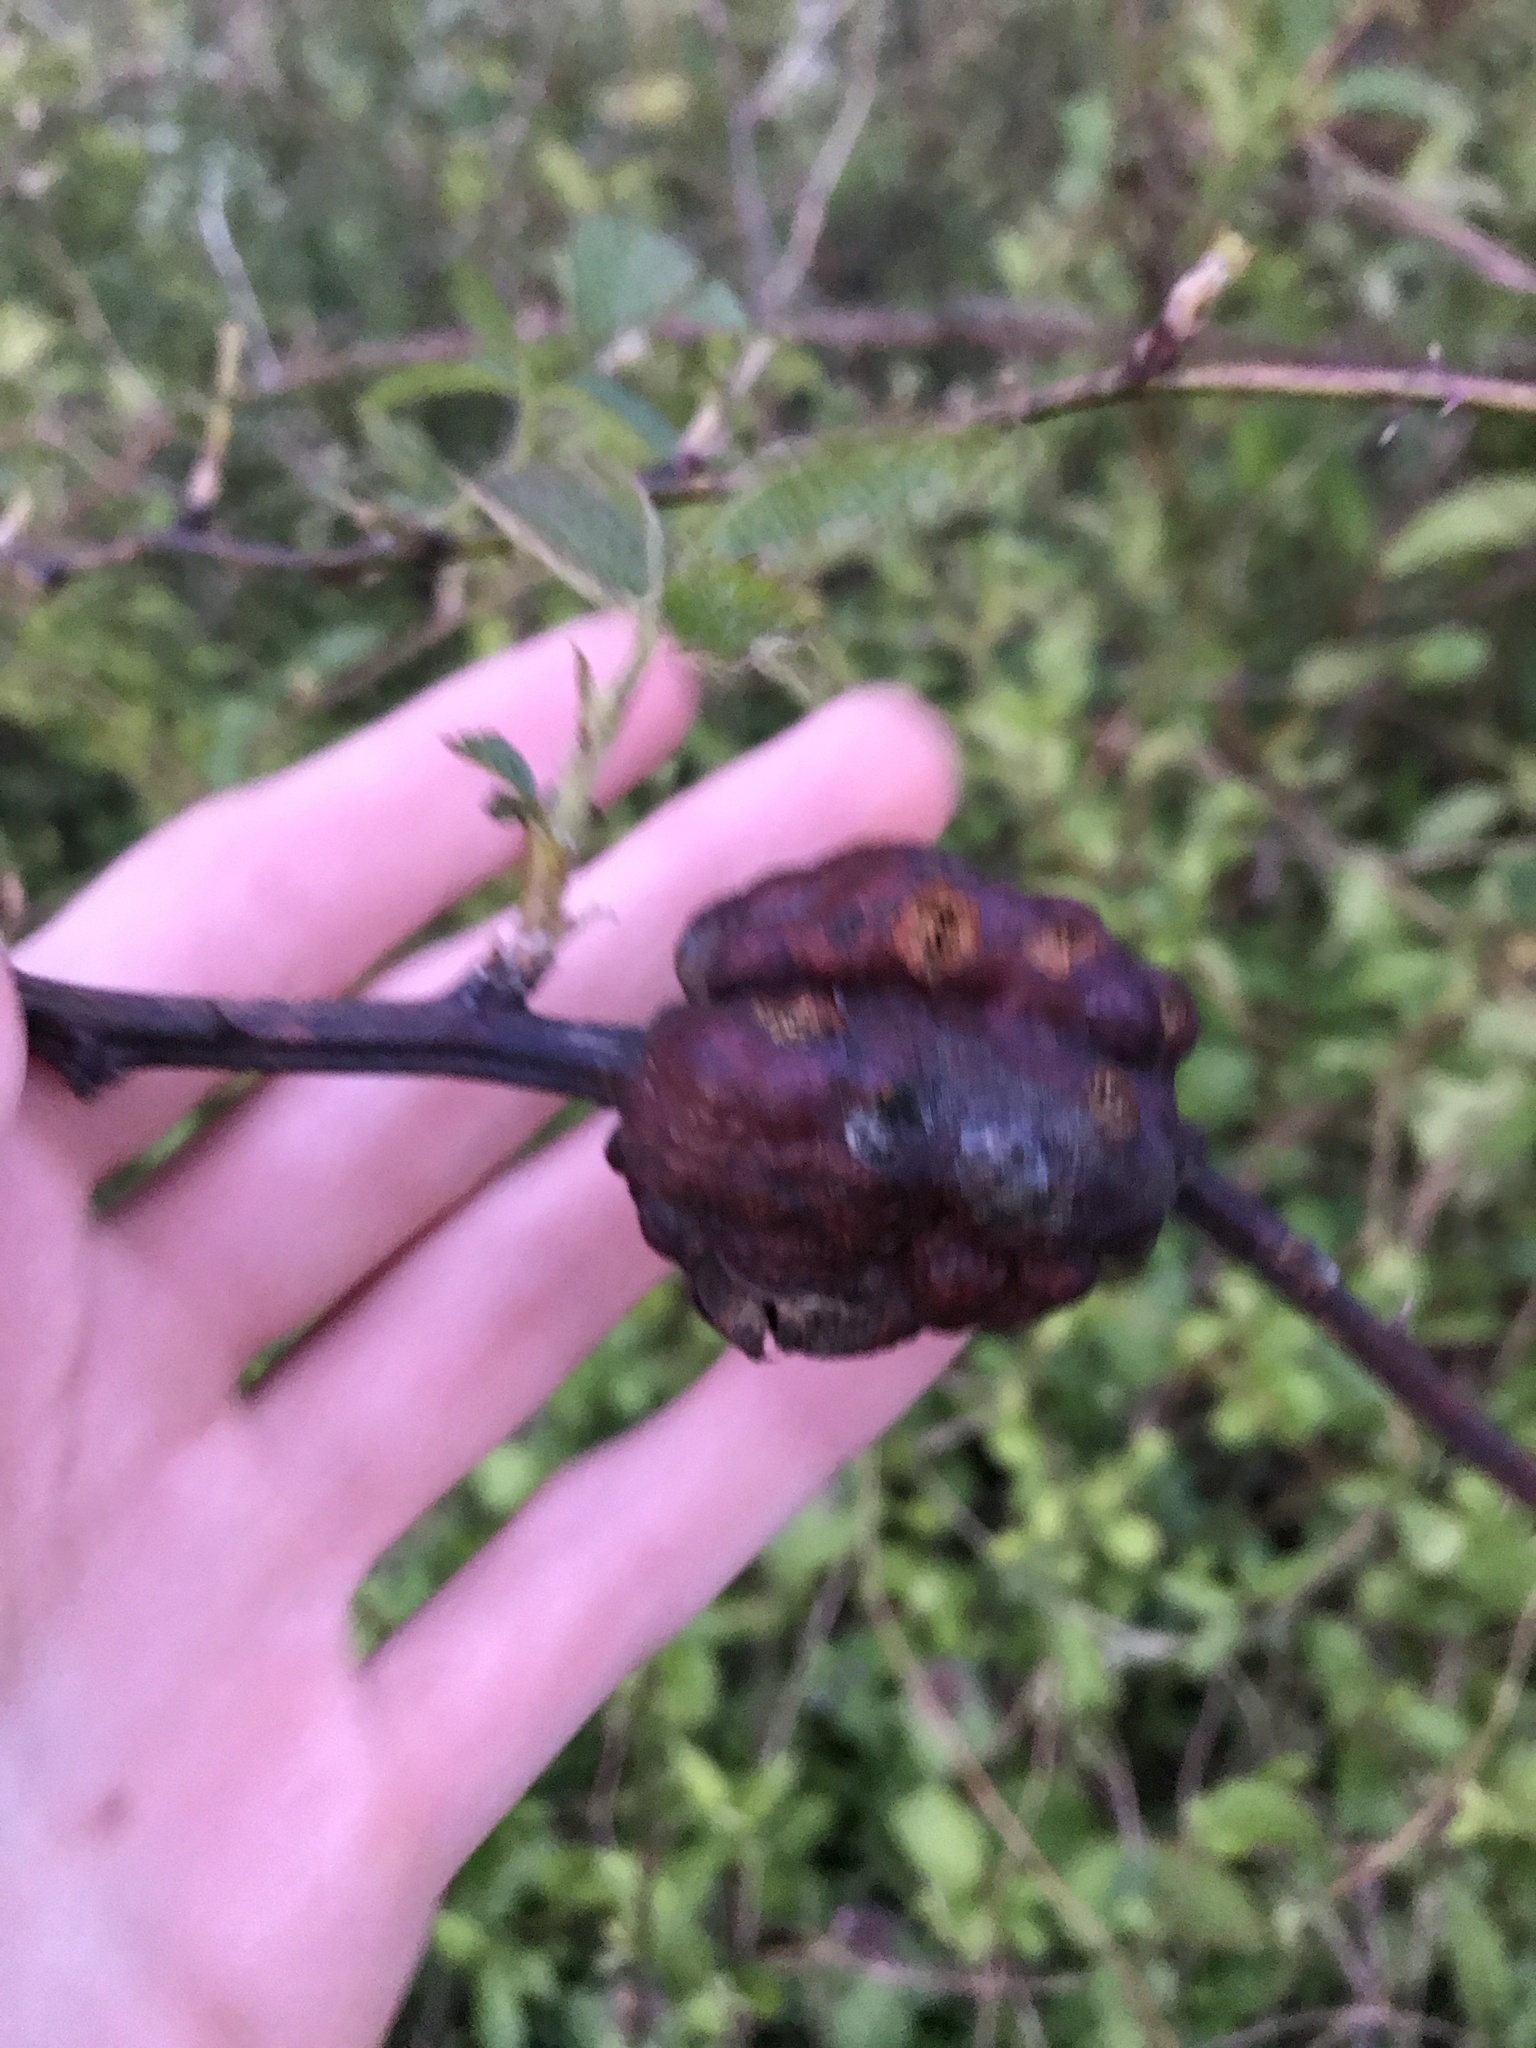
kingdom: Animalia
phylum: Arthropoda
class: Insecta
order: Hymenoptera
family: Cynipidae
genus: Diastrophus
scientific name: Diastrophus
